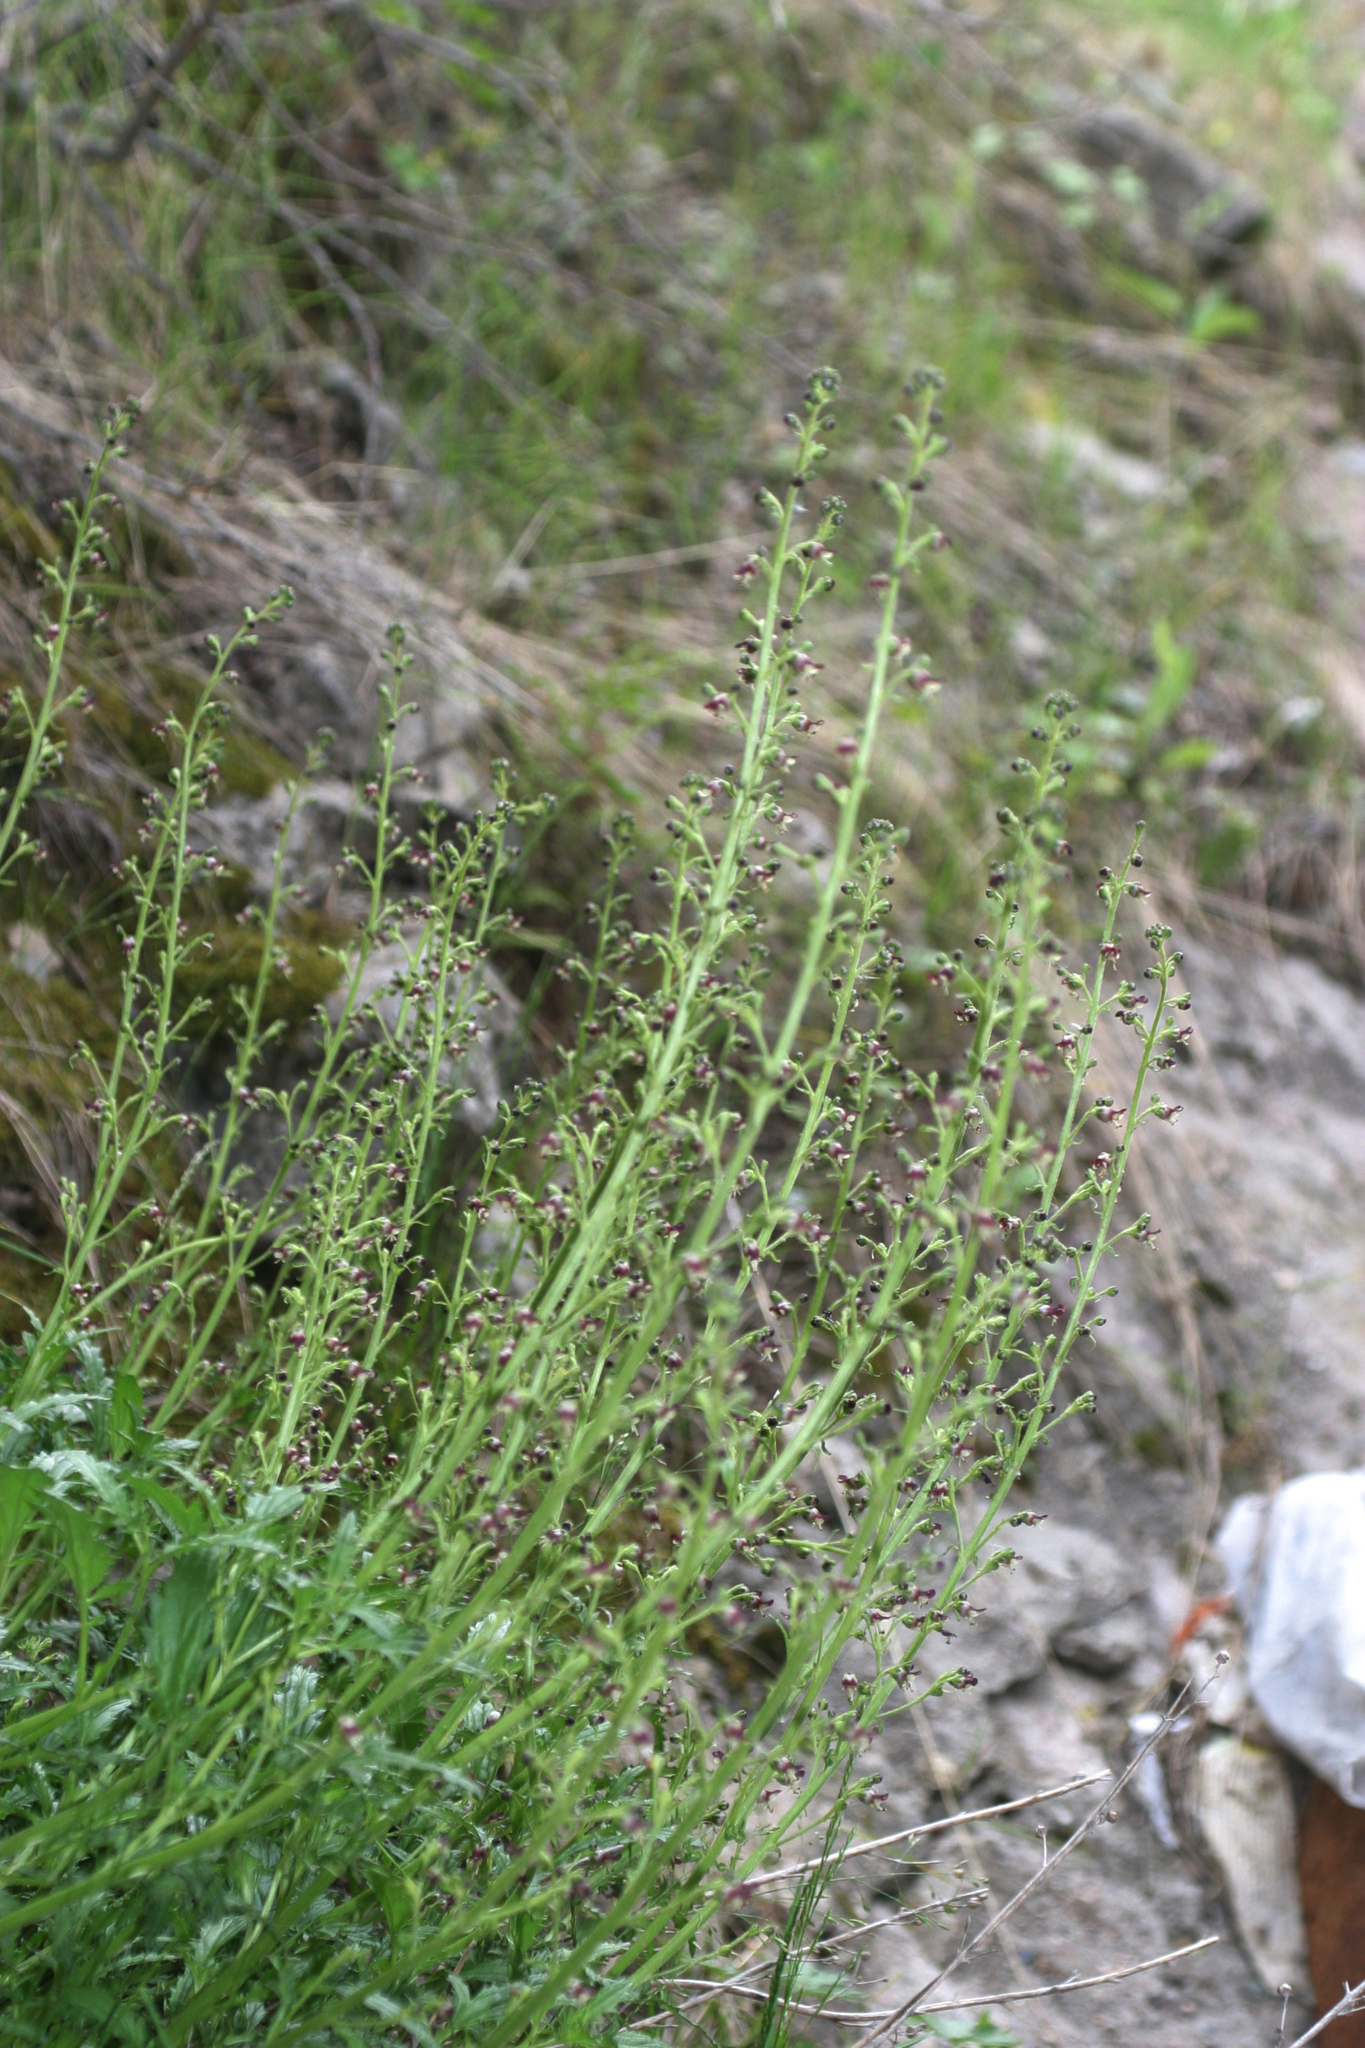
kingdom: Plantae
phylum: Tracheophyta
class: Magnoliopsida
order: Lamiales
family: Scrophulariaceae
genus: Scrophularia
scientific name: Scrophularia kiriloviana
